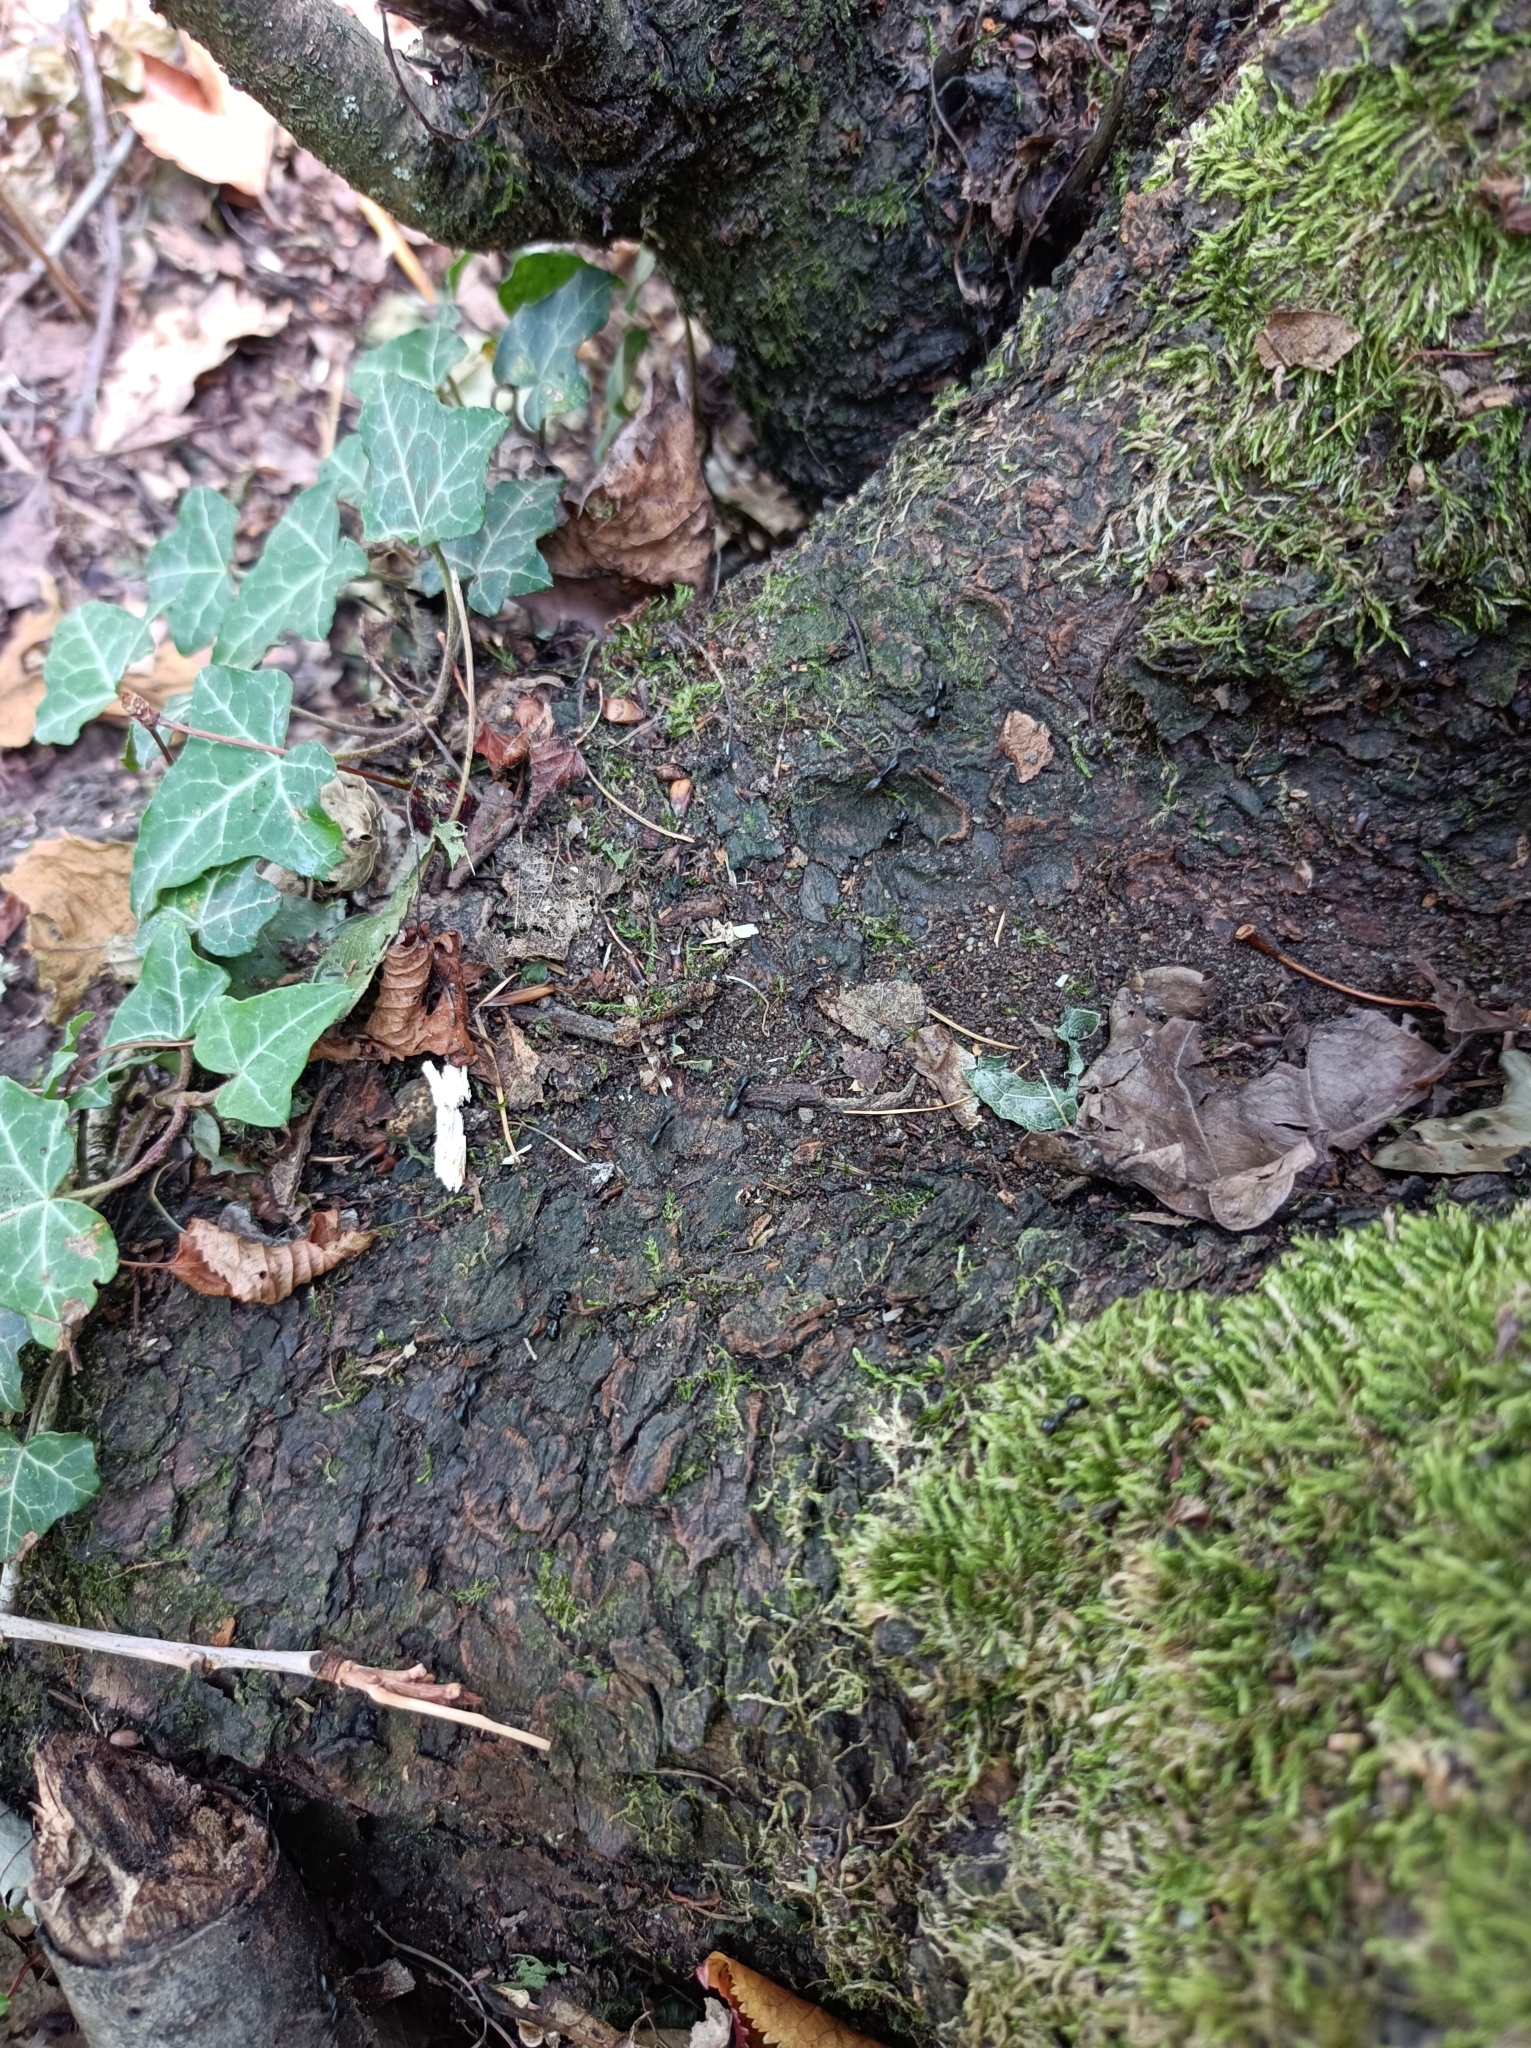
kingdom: Animalia
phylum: Arthropoda
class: Insecta
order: Hymenoptera
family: Formicidae
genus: Lasius
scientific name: Lasius fuliginosus
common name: Jet ant
